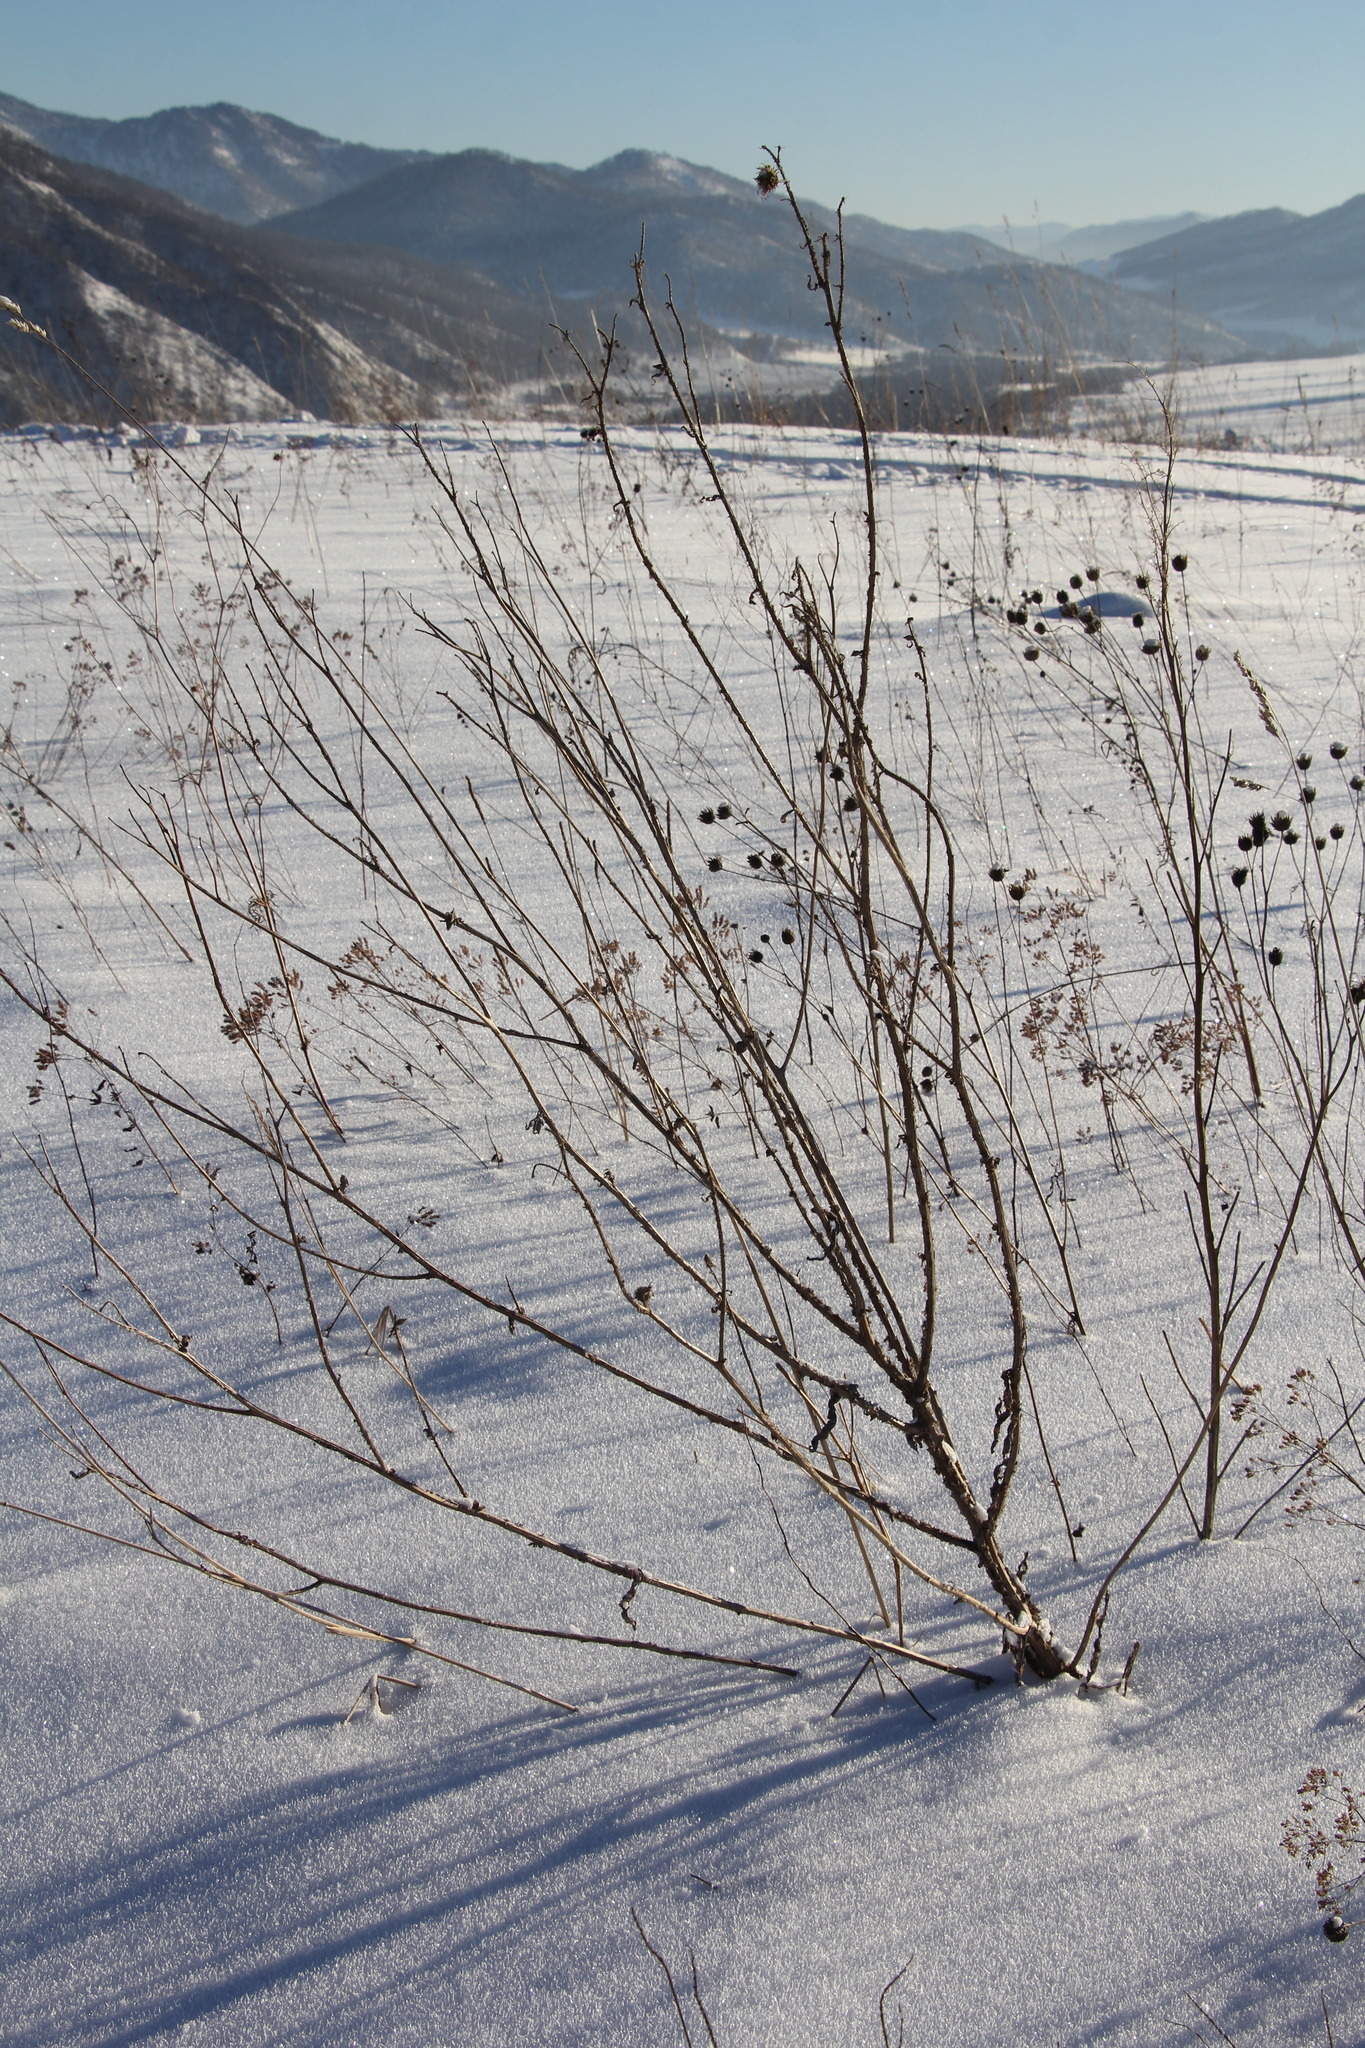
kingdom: Plantae
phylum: Tracheophyta
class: Magnoliopsida
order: Asterales
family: Asteraceae
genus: Carduus
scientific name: Carduus crispus
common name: Welted thistle
